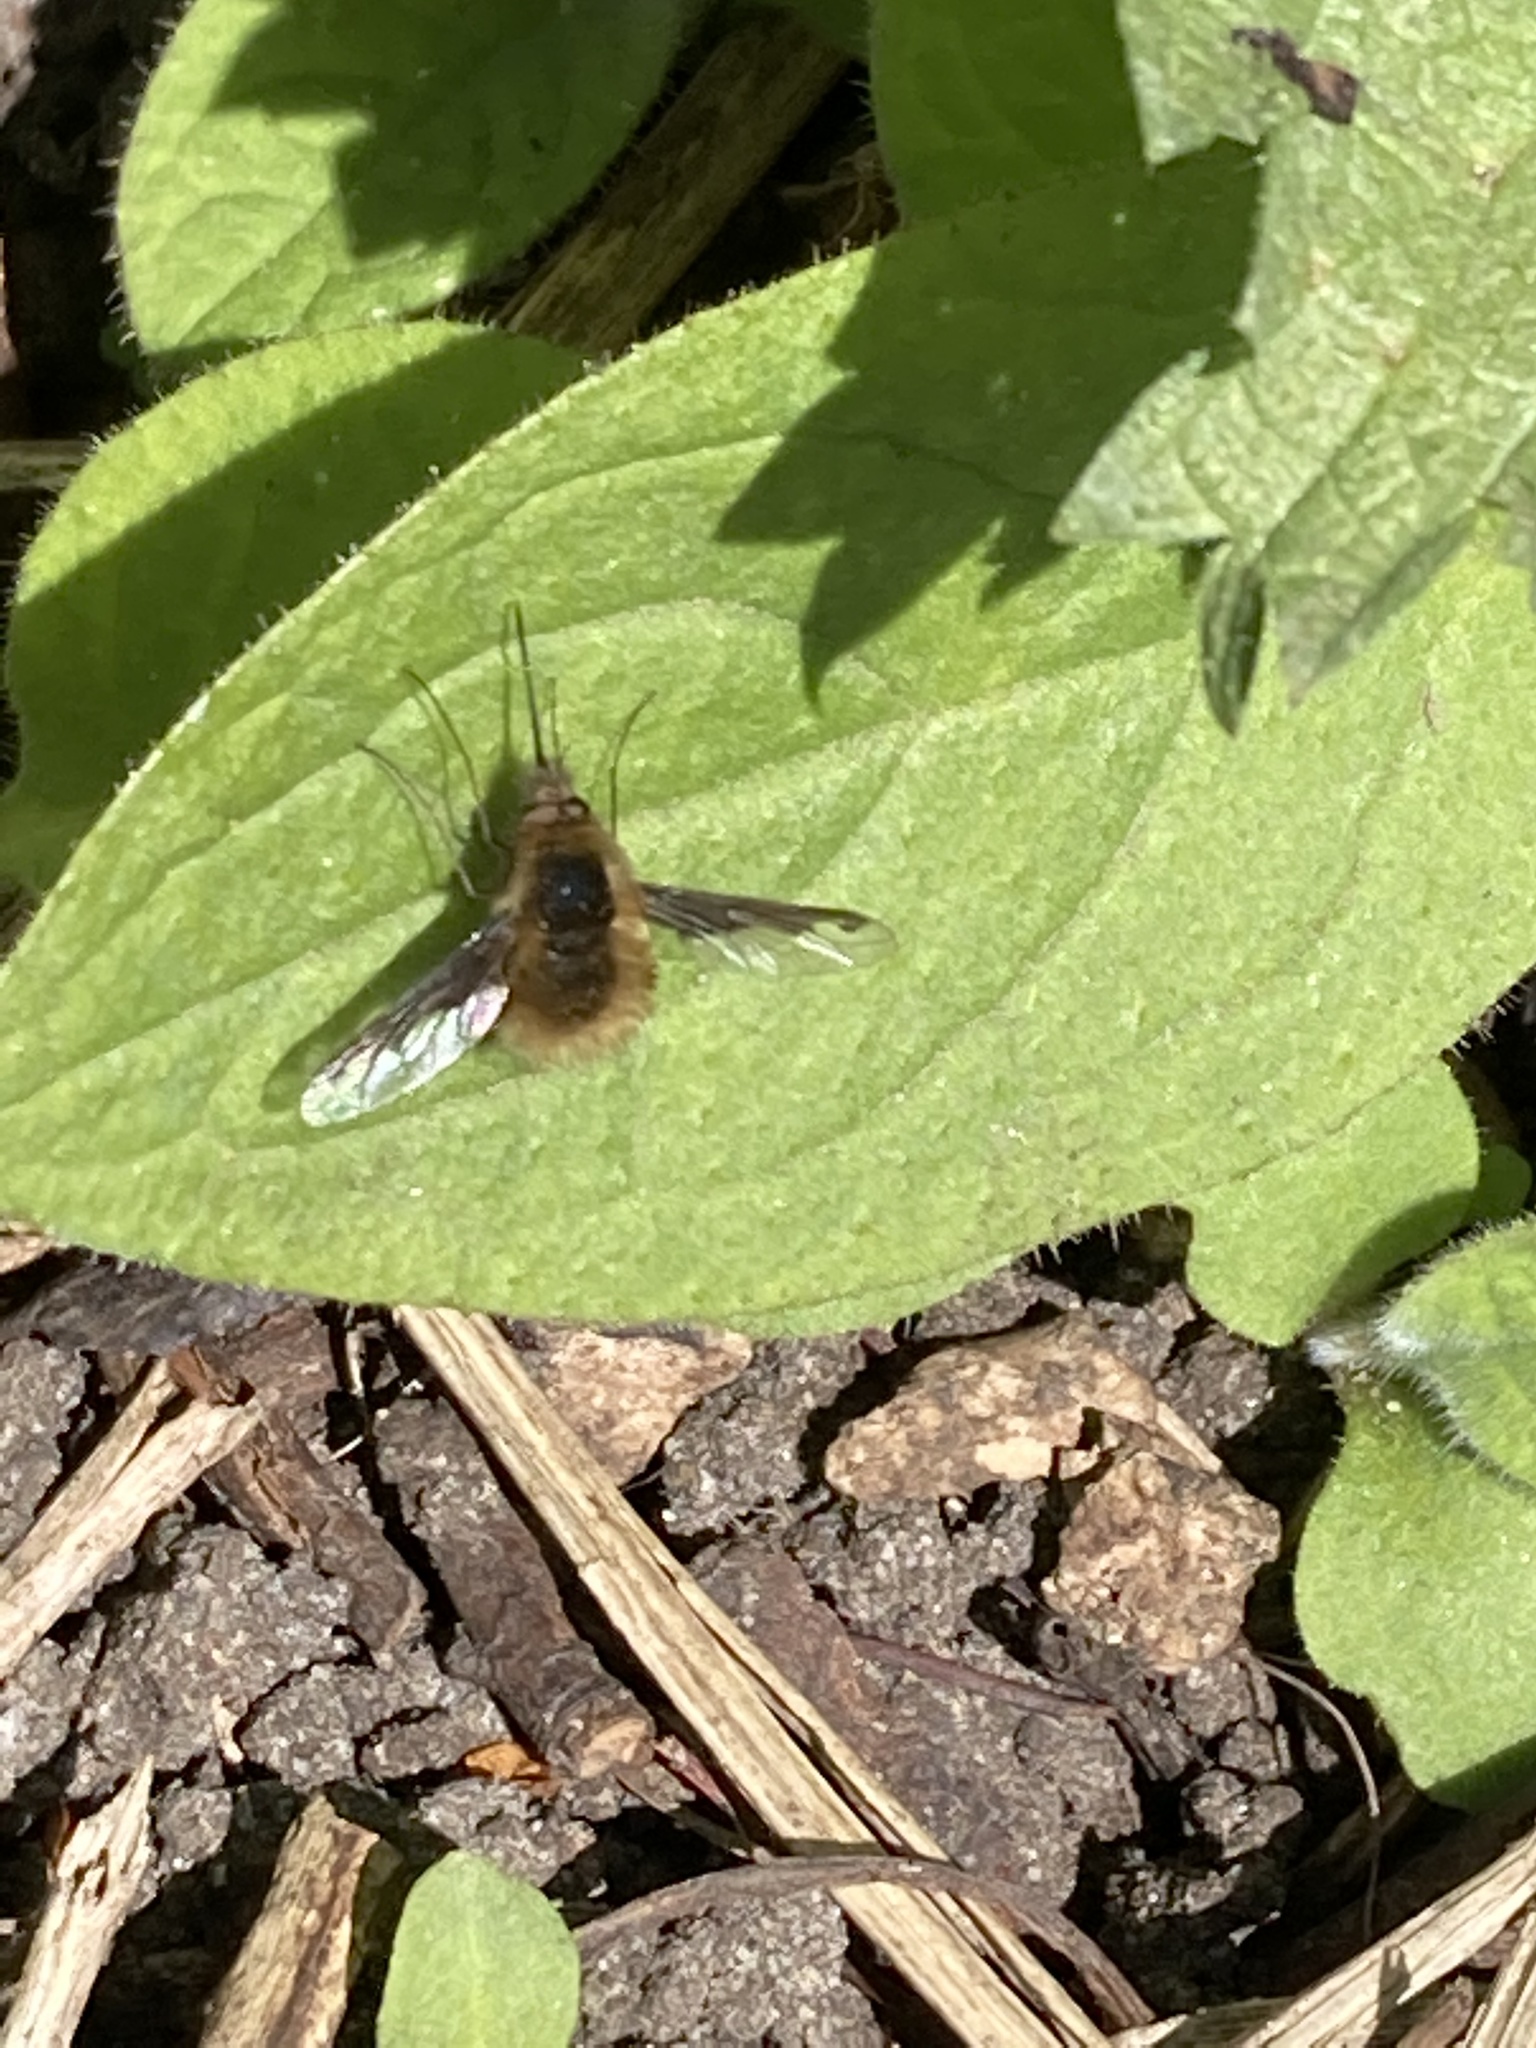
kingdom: Animalia
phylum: Arthropoda
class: Insecta
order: Diptera
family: Bombyliidae
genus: Bombylius
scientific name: Bombylius major
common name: Bee fly
